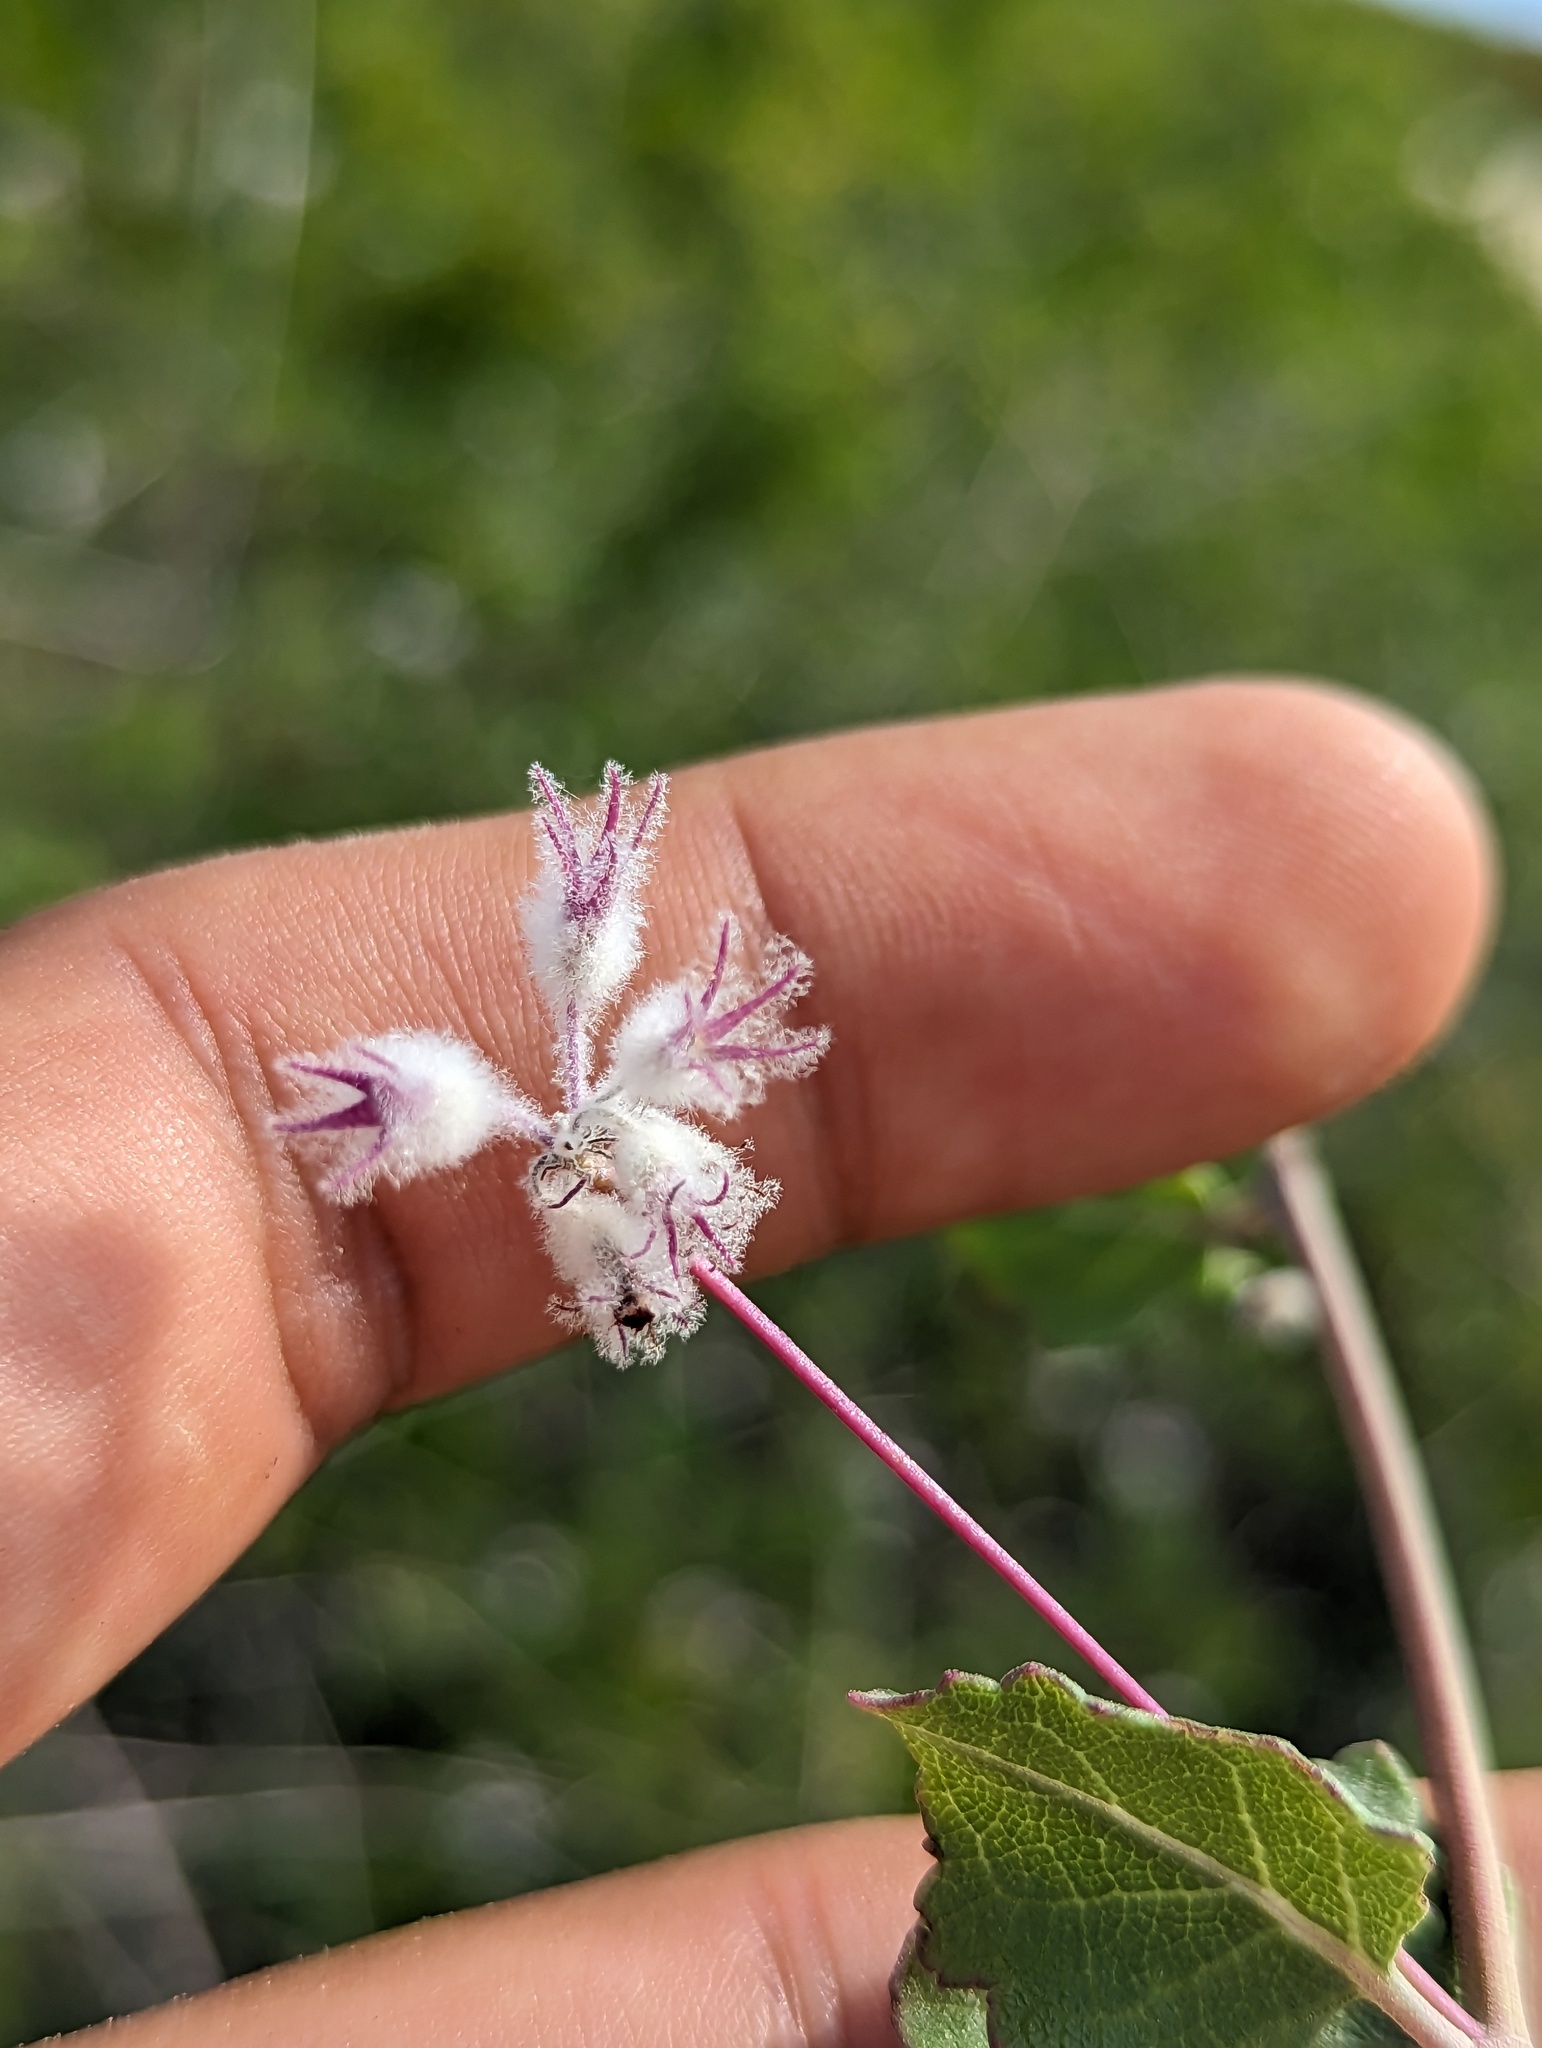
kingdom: Plantae
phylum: Tracheophyta
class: Magnoliopsida
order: Lamiales
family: Lamiaceae
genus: Condea
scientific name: Condea laniflora
